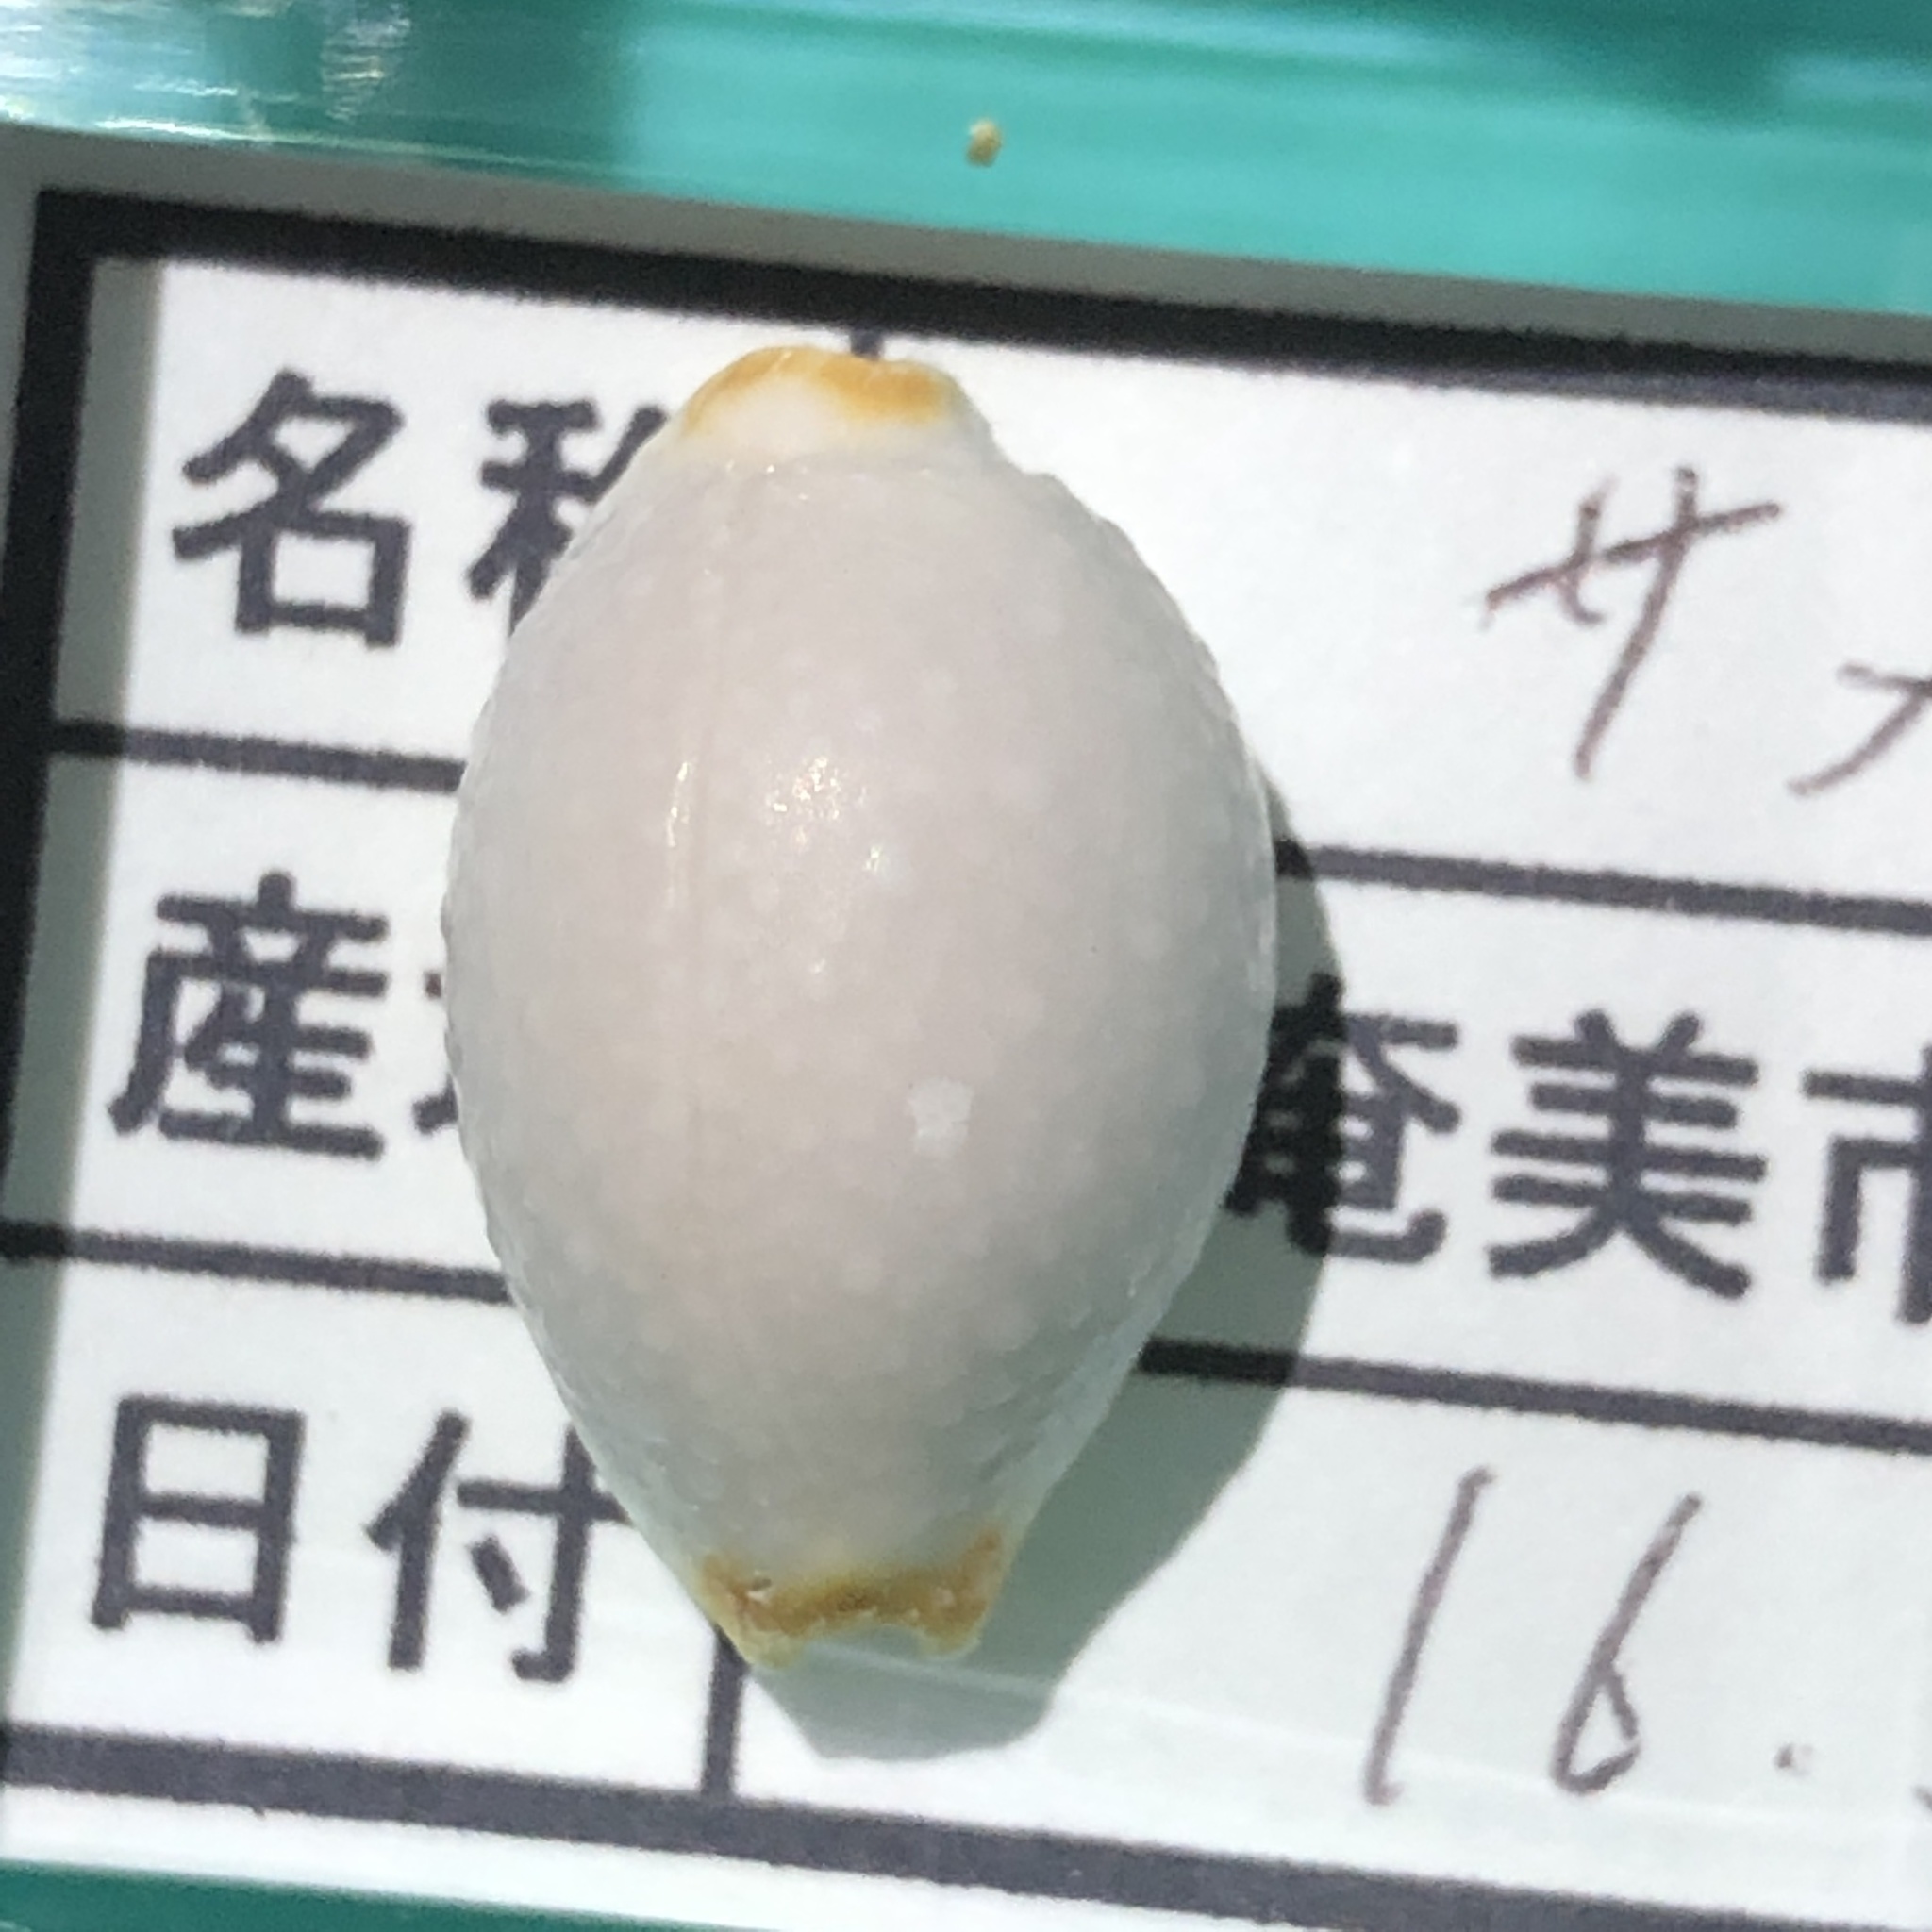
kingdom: Animalia
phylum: Mollusca
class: Gastropoda
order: Littorinimorpha
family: Cypraeidae
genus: Staphylaea
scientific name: Staphylaea staphylaea
